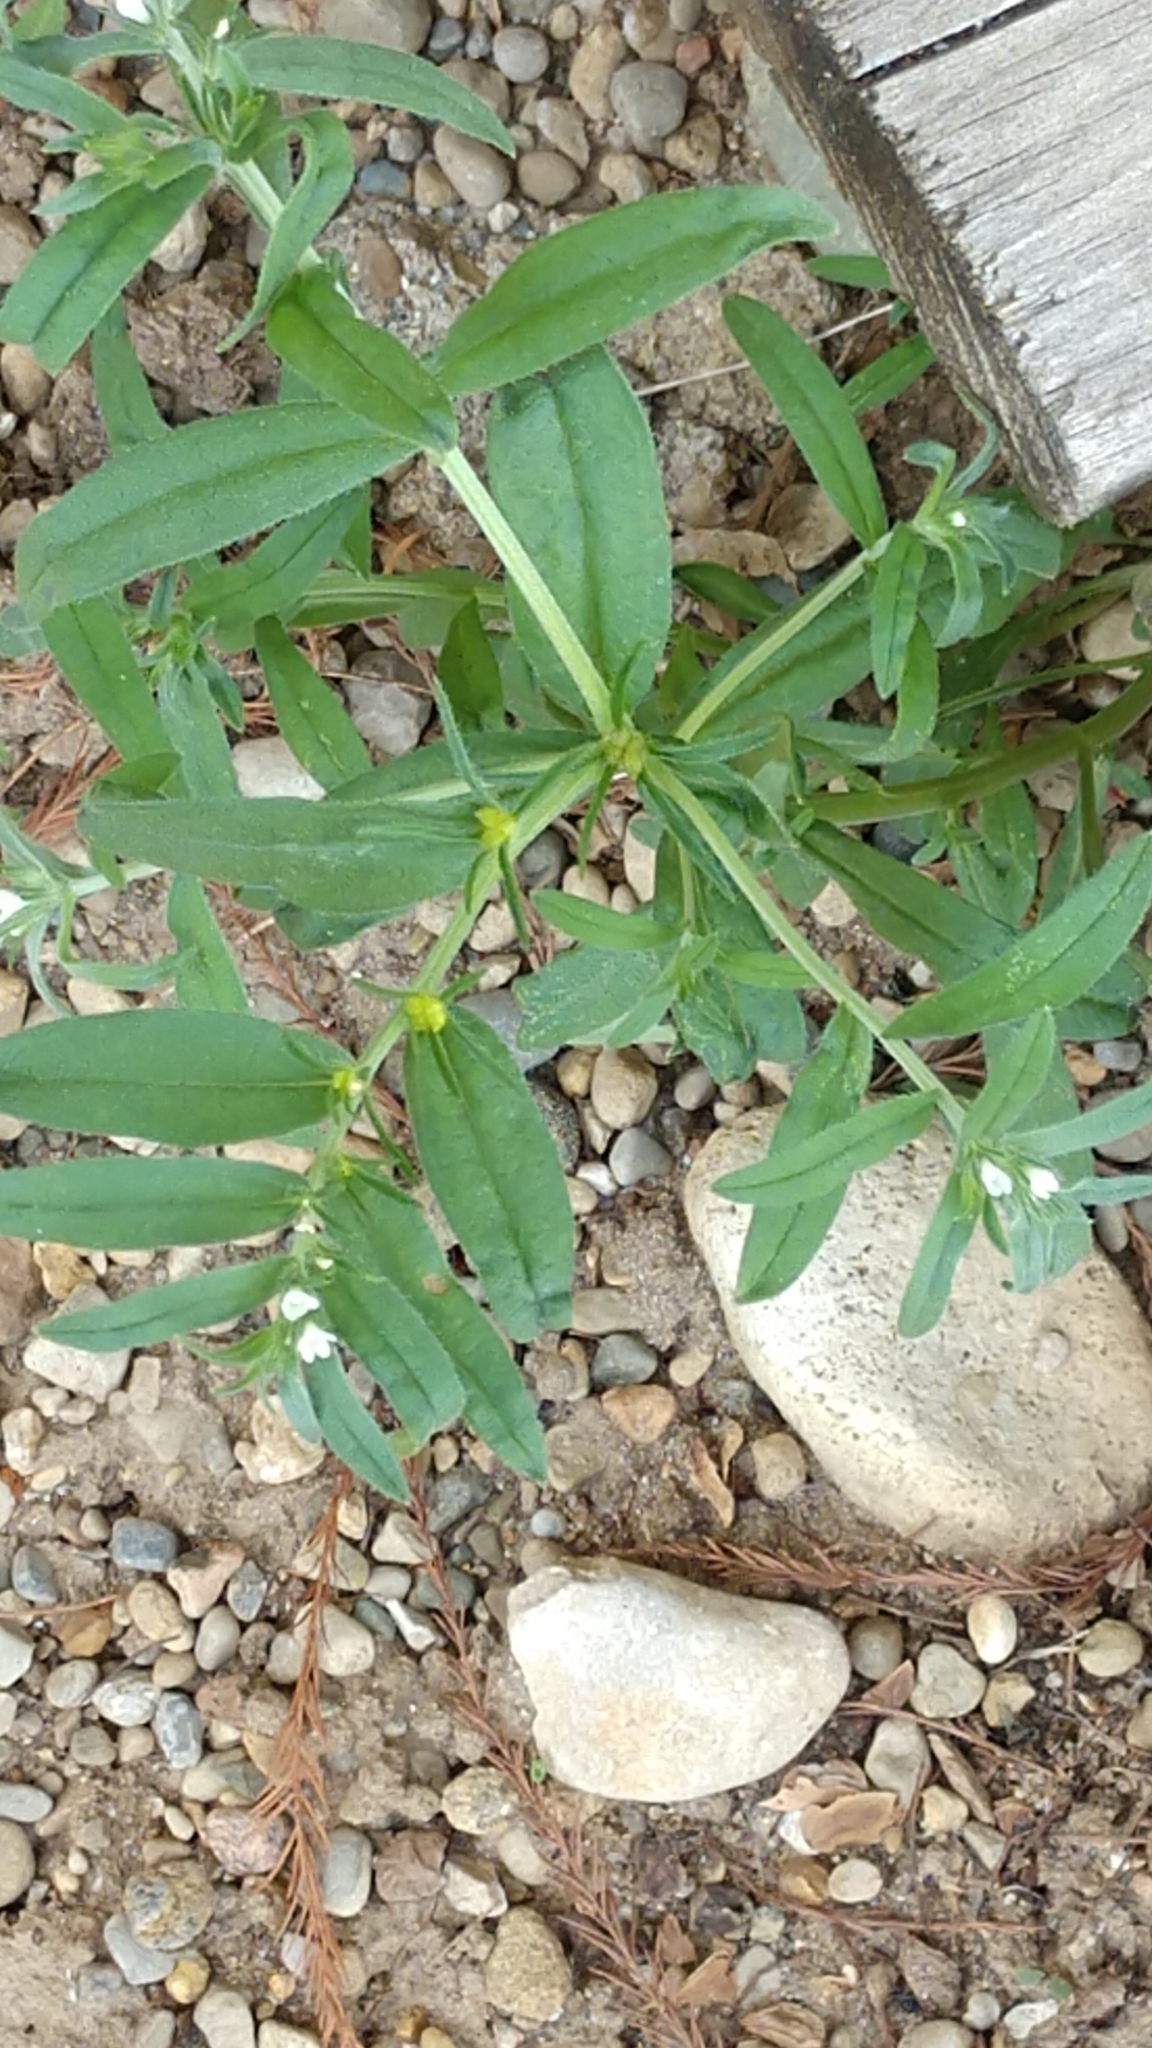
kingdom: Plantae
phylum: Tracheophyta
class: Magnoliopsida
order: Boraginales
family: Boraginaceae
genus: Buglossoides
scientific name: Buglossoides arvensis
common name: Corn gromwell
